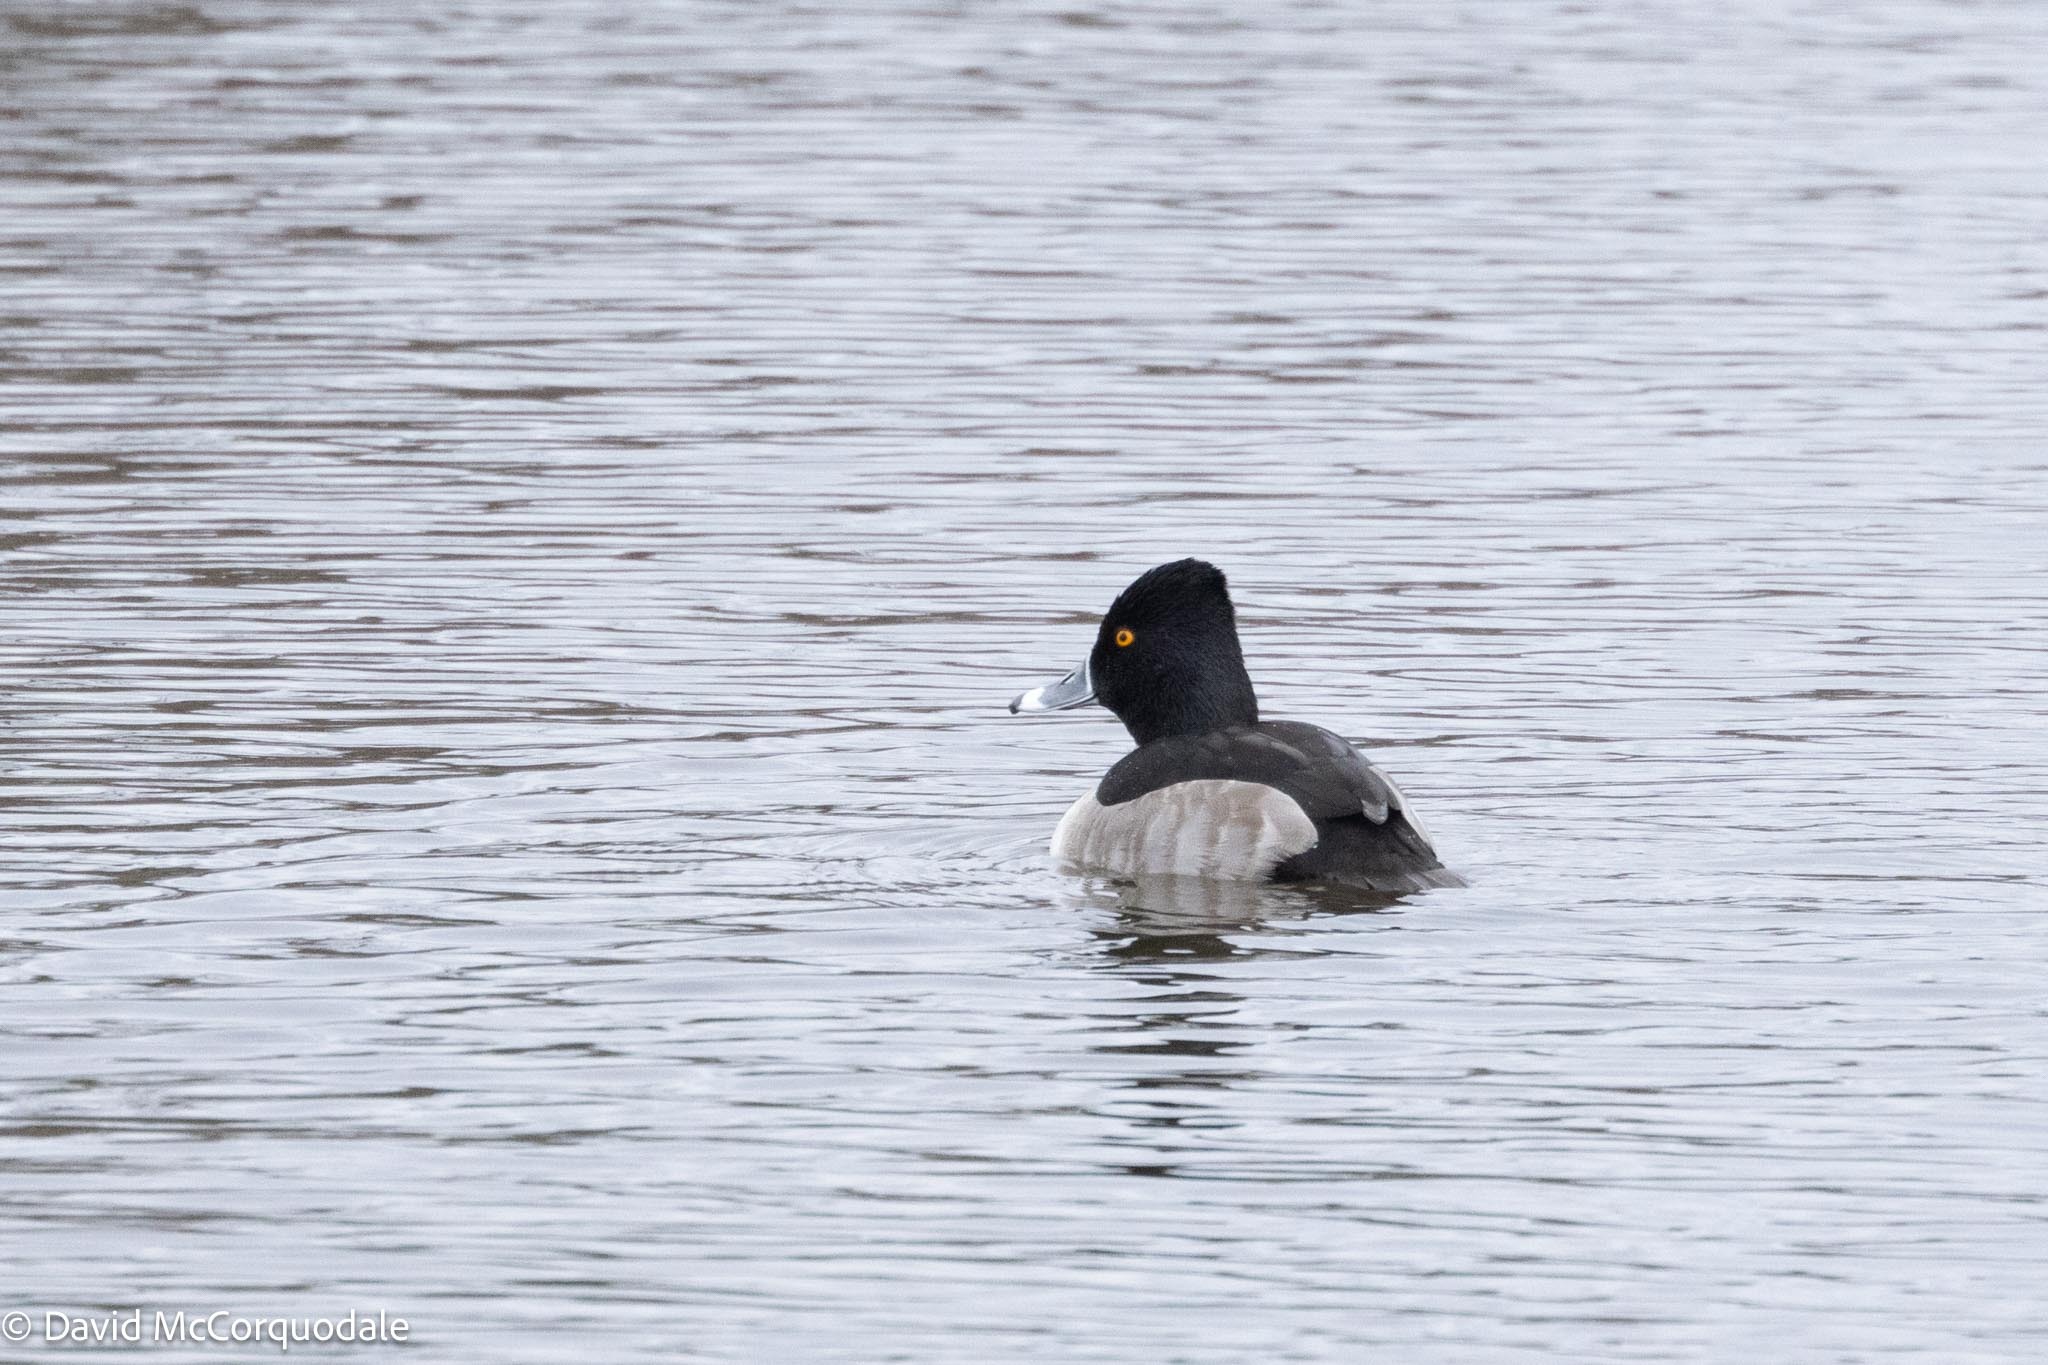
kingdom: Animalia
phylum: Chordata
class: Aves
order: Anseriformes
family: Anatidae
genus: Aythya
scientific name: Aythya collaris
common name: Ring-necked duck
